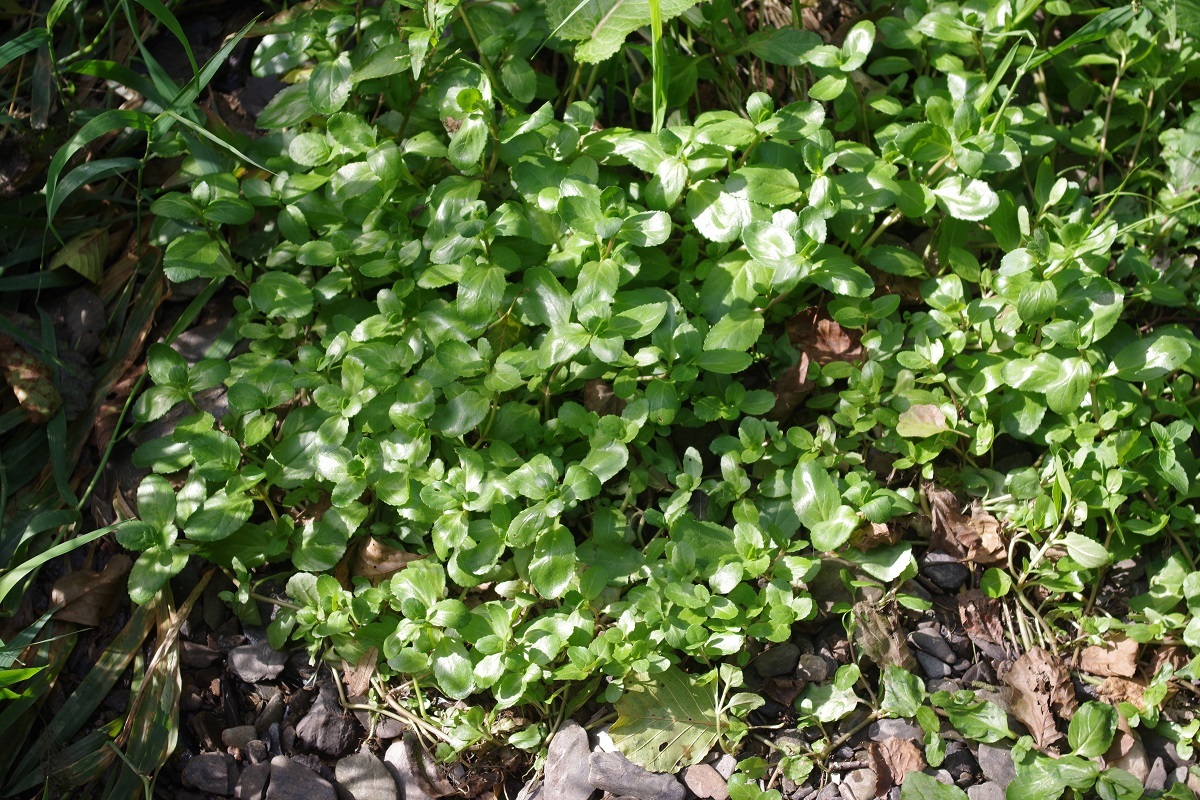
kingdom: Plantae
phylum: Tracheophyta
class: Magnoliopsida
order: Lamiales
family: Plantaginaceae
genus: Veronica
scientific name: Veronica beccabunga
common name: Brooklime
